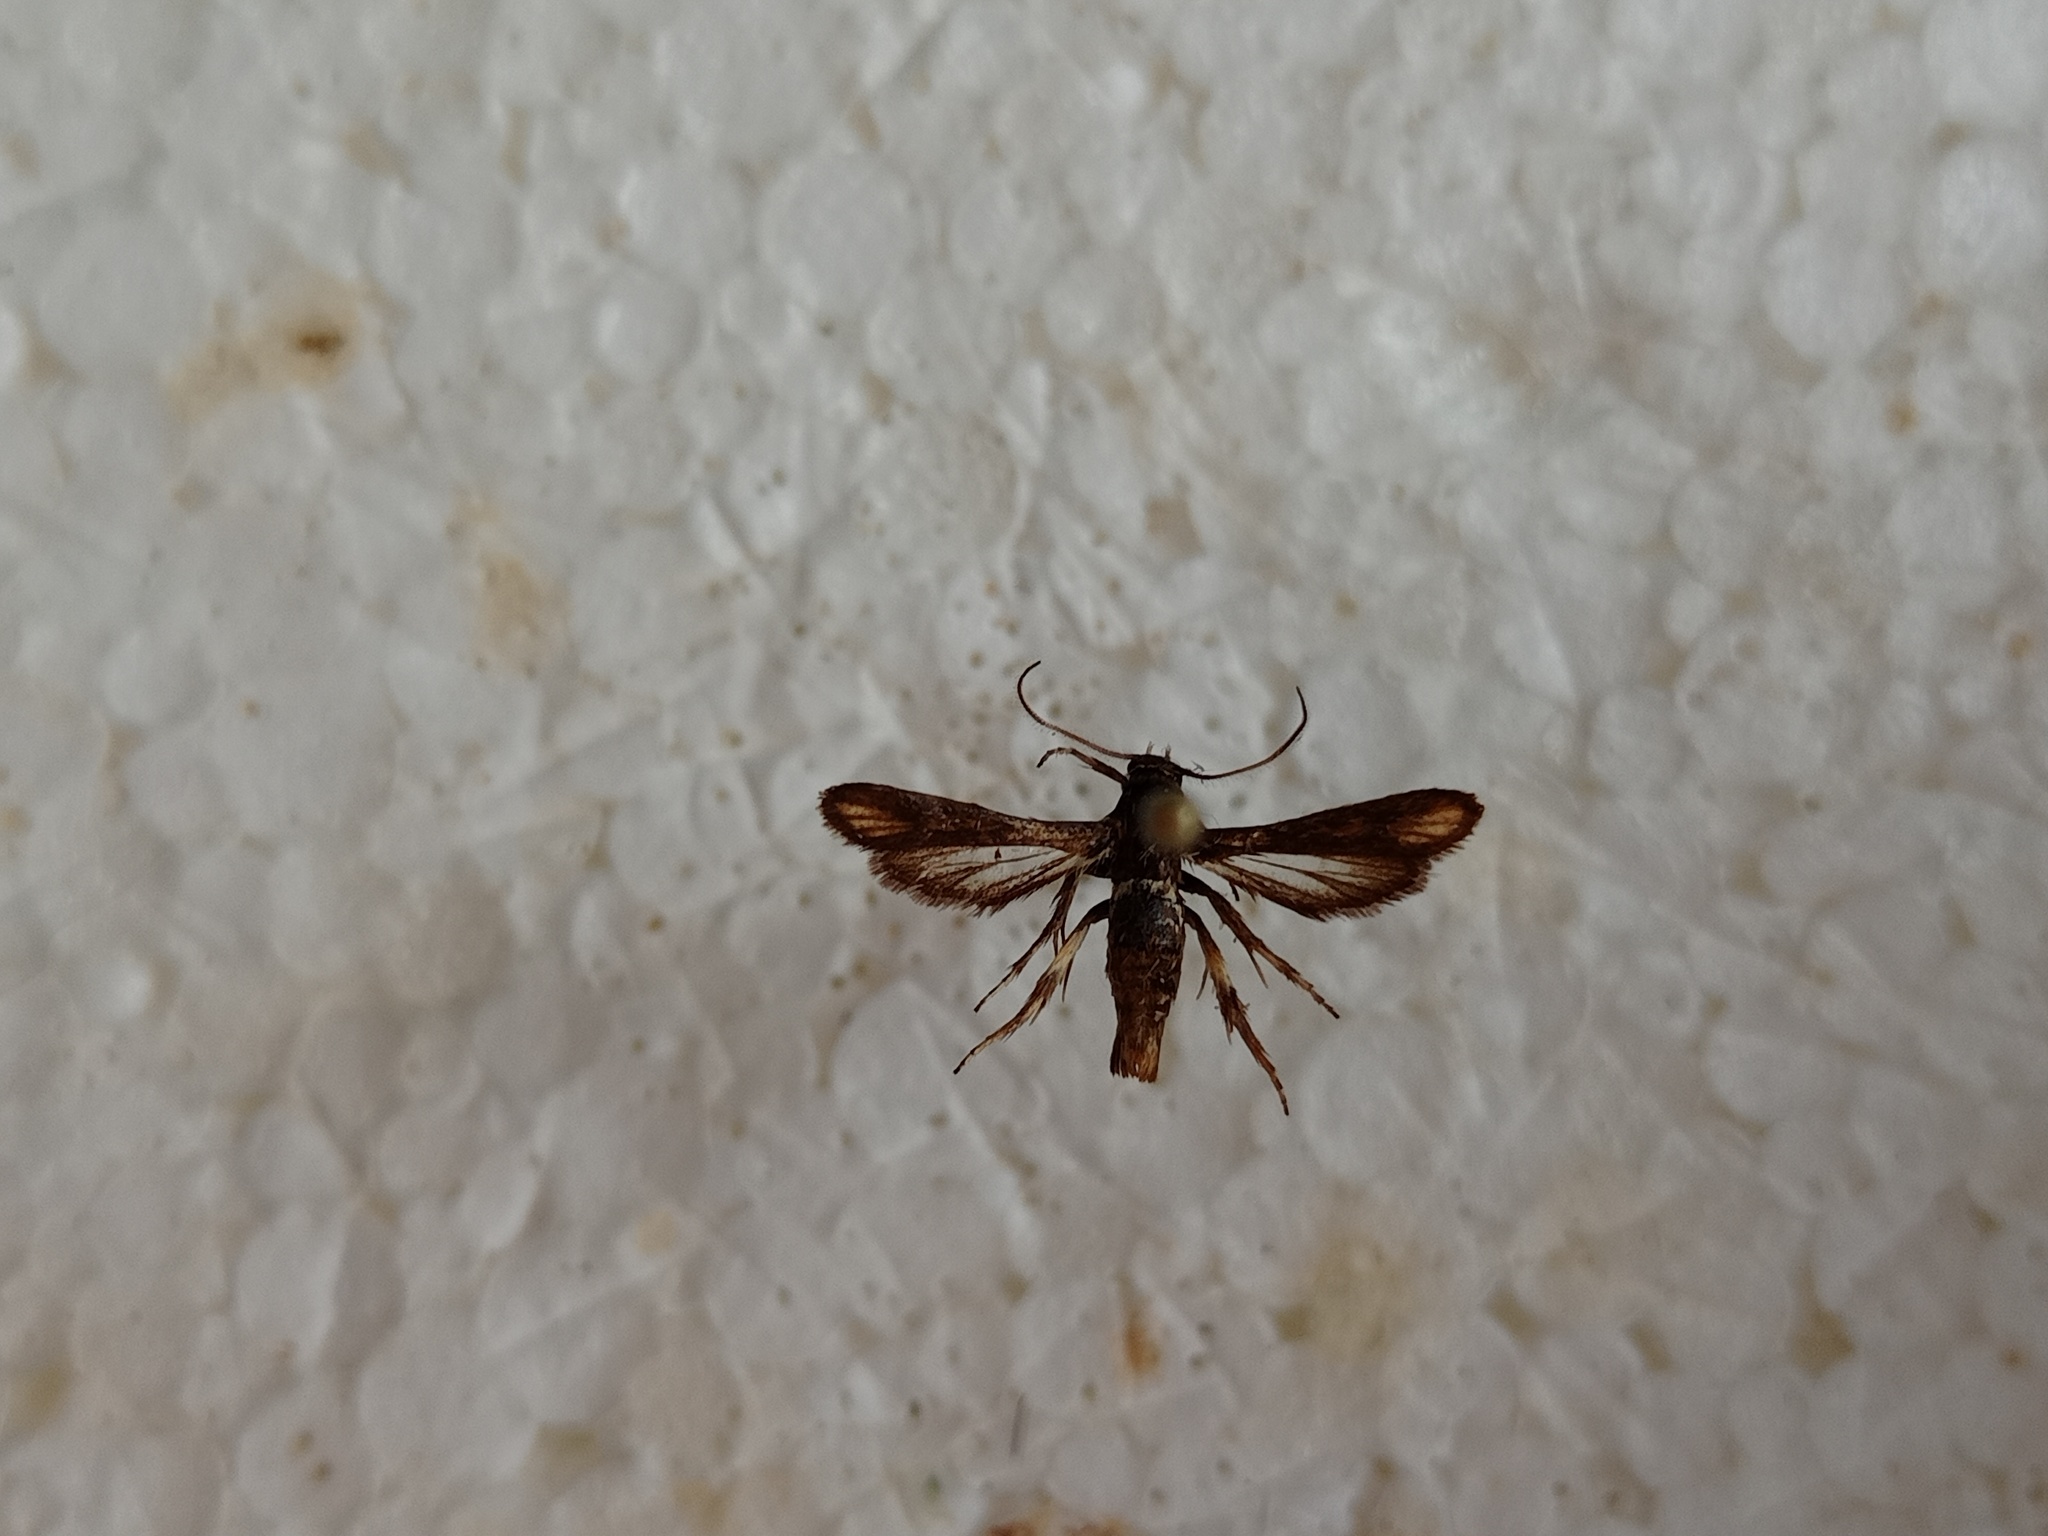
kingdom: Animalia
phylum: Arthropoda
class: Insecta
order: Lepidoptera
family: Sesiidae
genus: Microsphecia
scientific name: Microsphecia brosiformis
